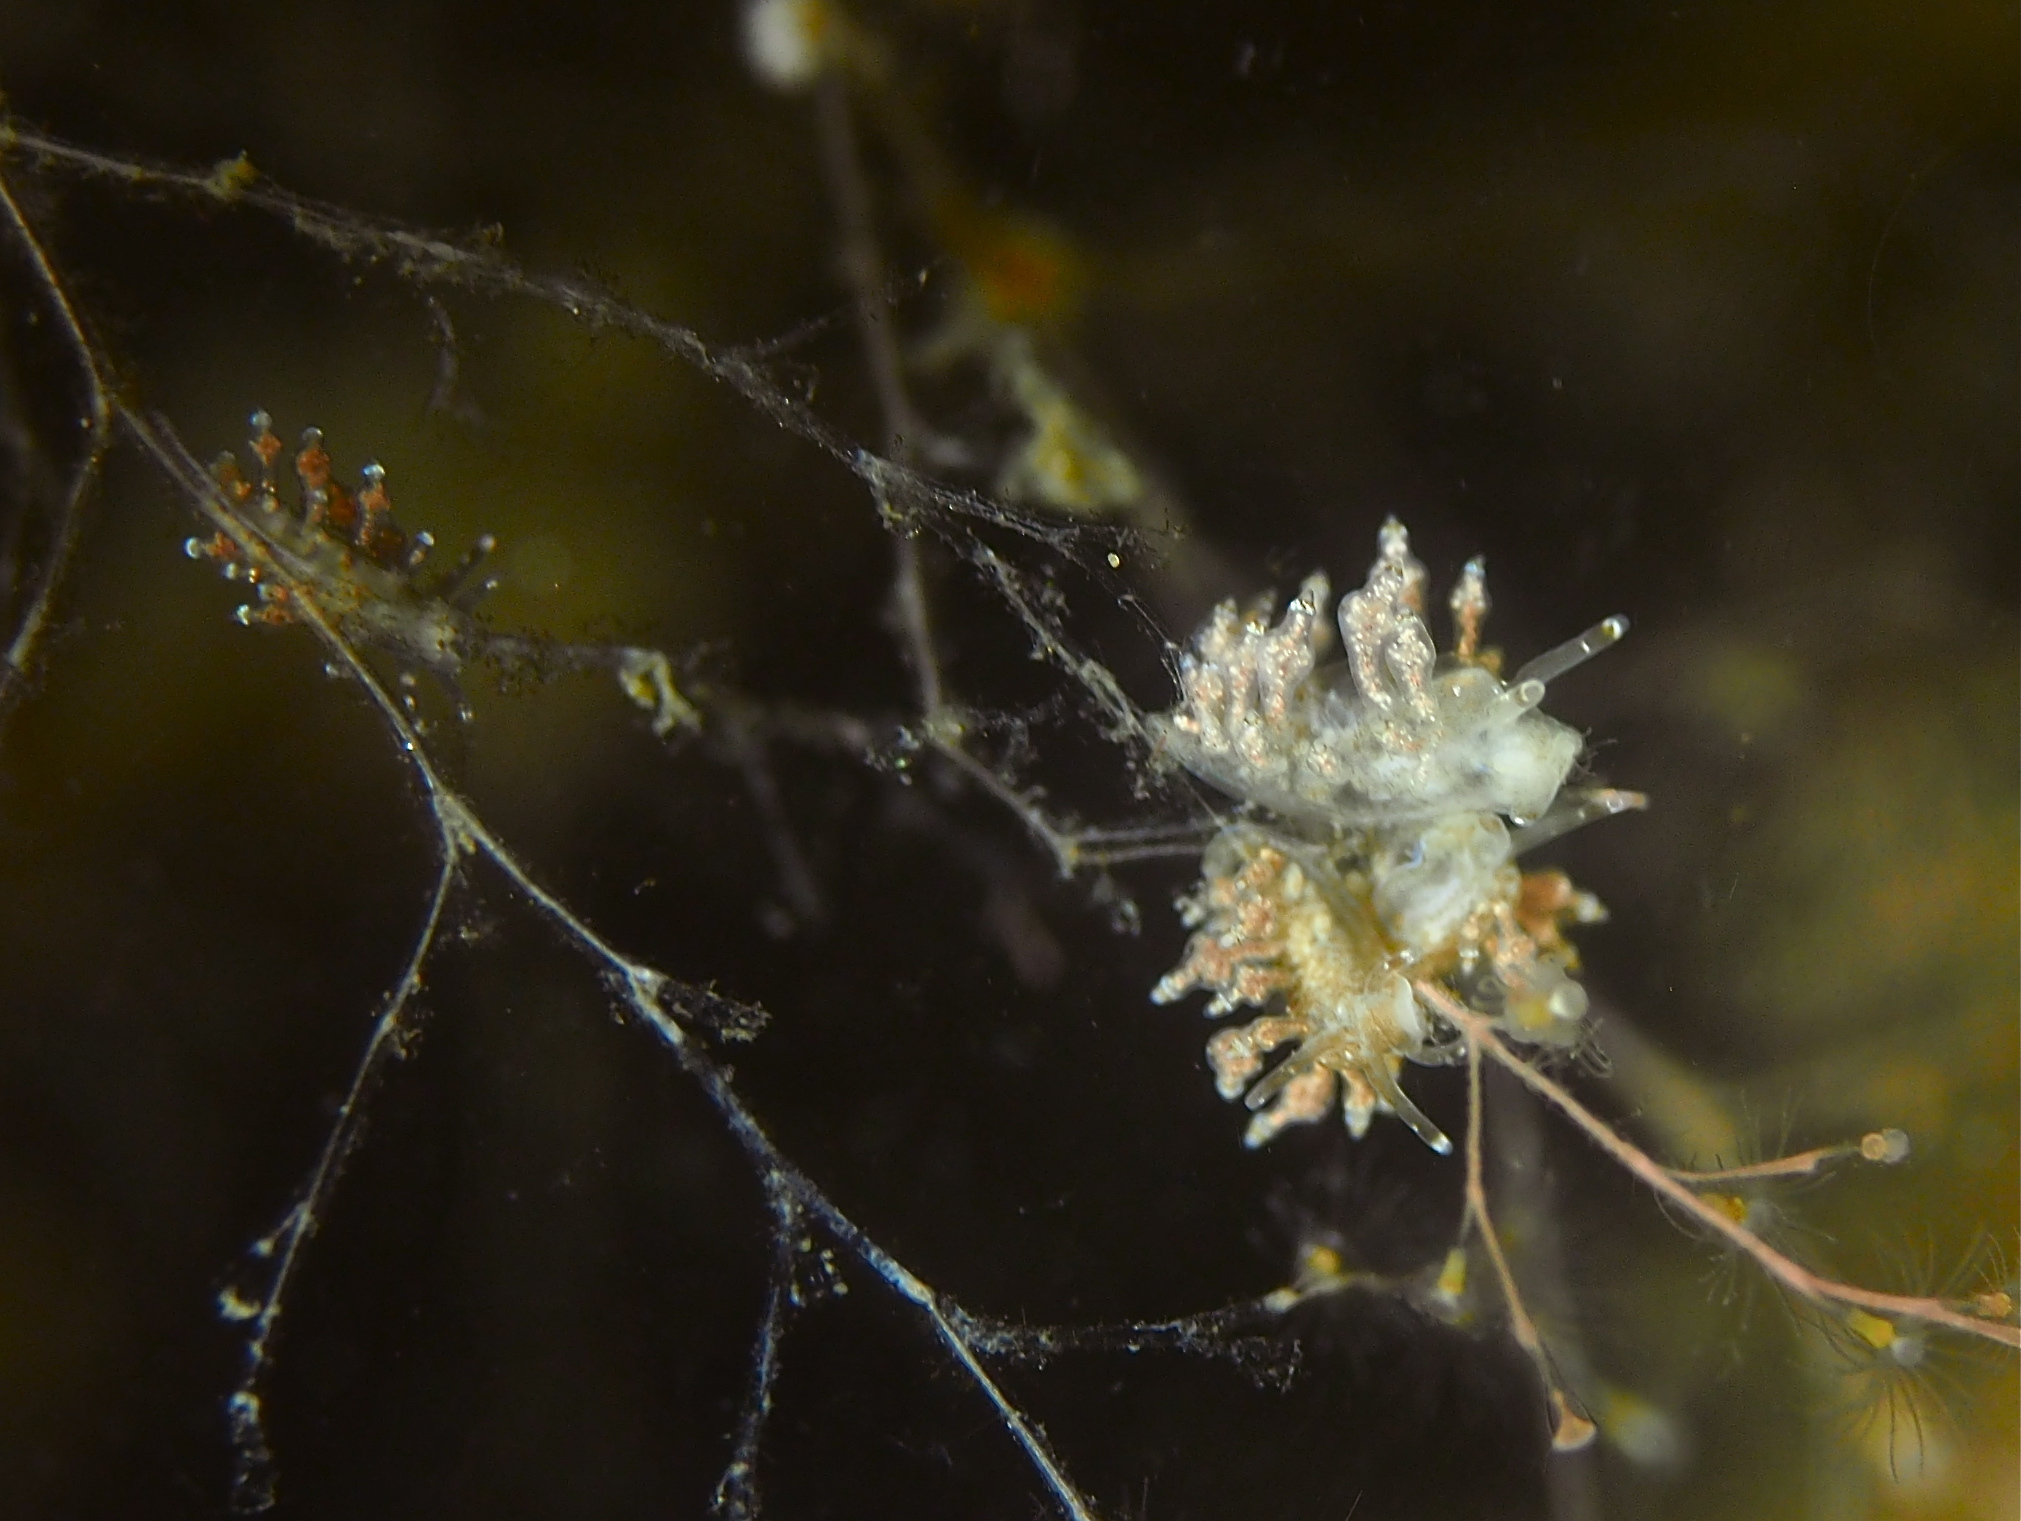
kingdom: Animalia
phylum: Mollusca
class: Gastropoda
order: Nudibranchia
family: Eubranchidae
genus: Eubranchus
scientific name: Eubranchus exiguus
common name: Balloon aeolis
